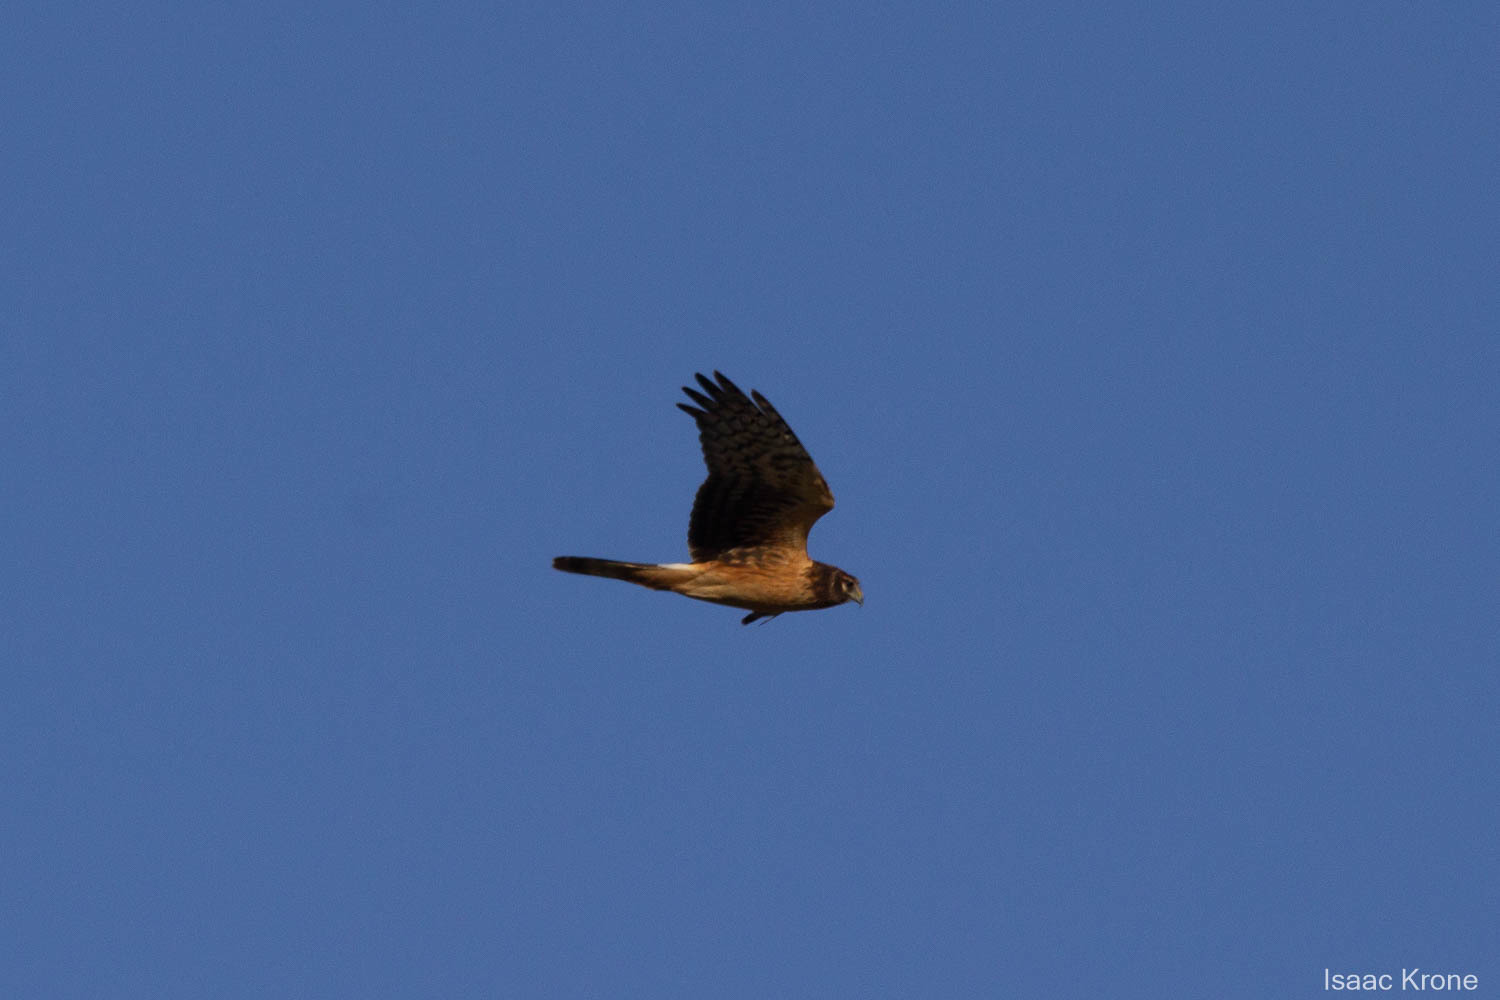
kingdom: Animalia
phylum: Chordata
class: Aves
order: Accipitriformes
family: Accipitridae
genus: Circus
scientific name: Circus cyaneus
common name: Hen harrier
